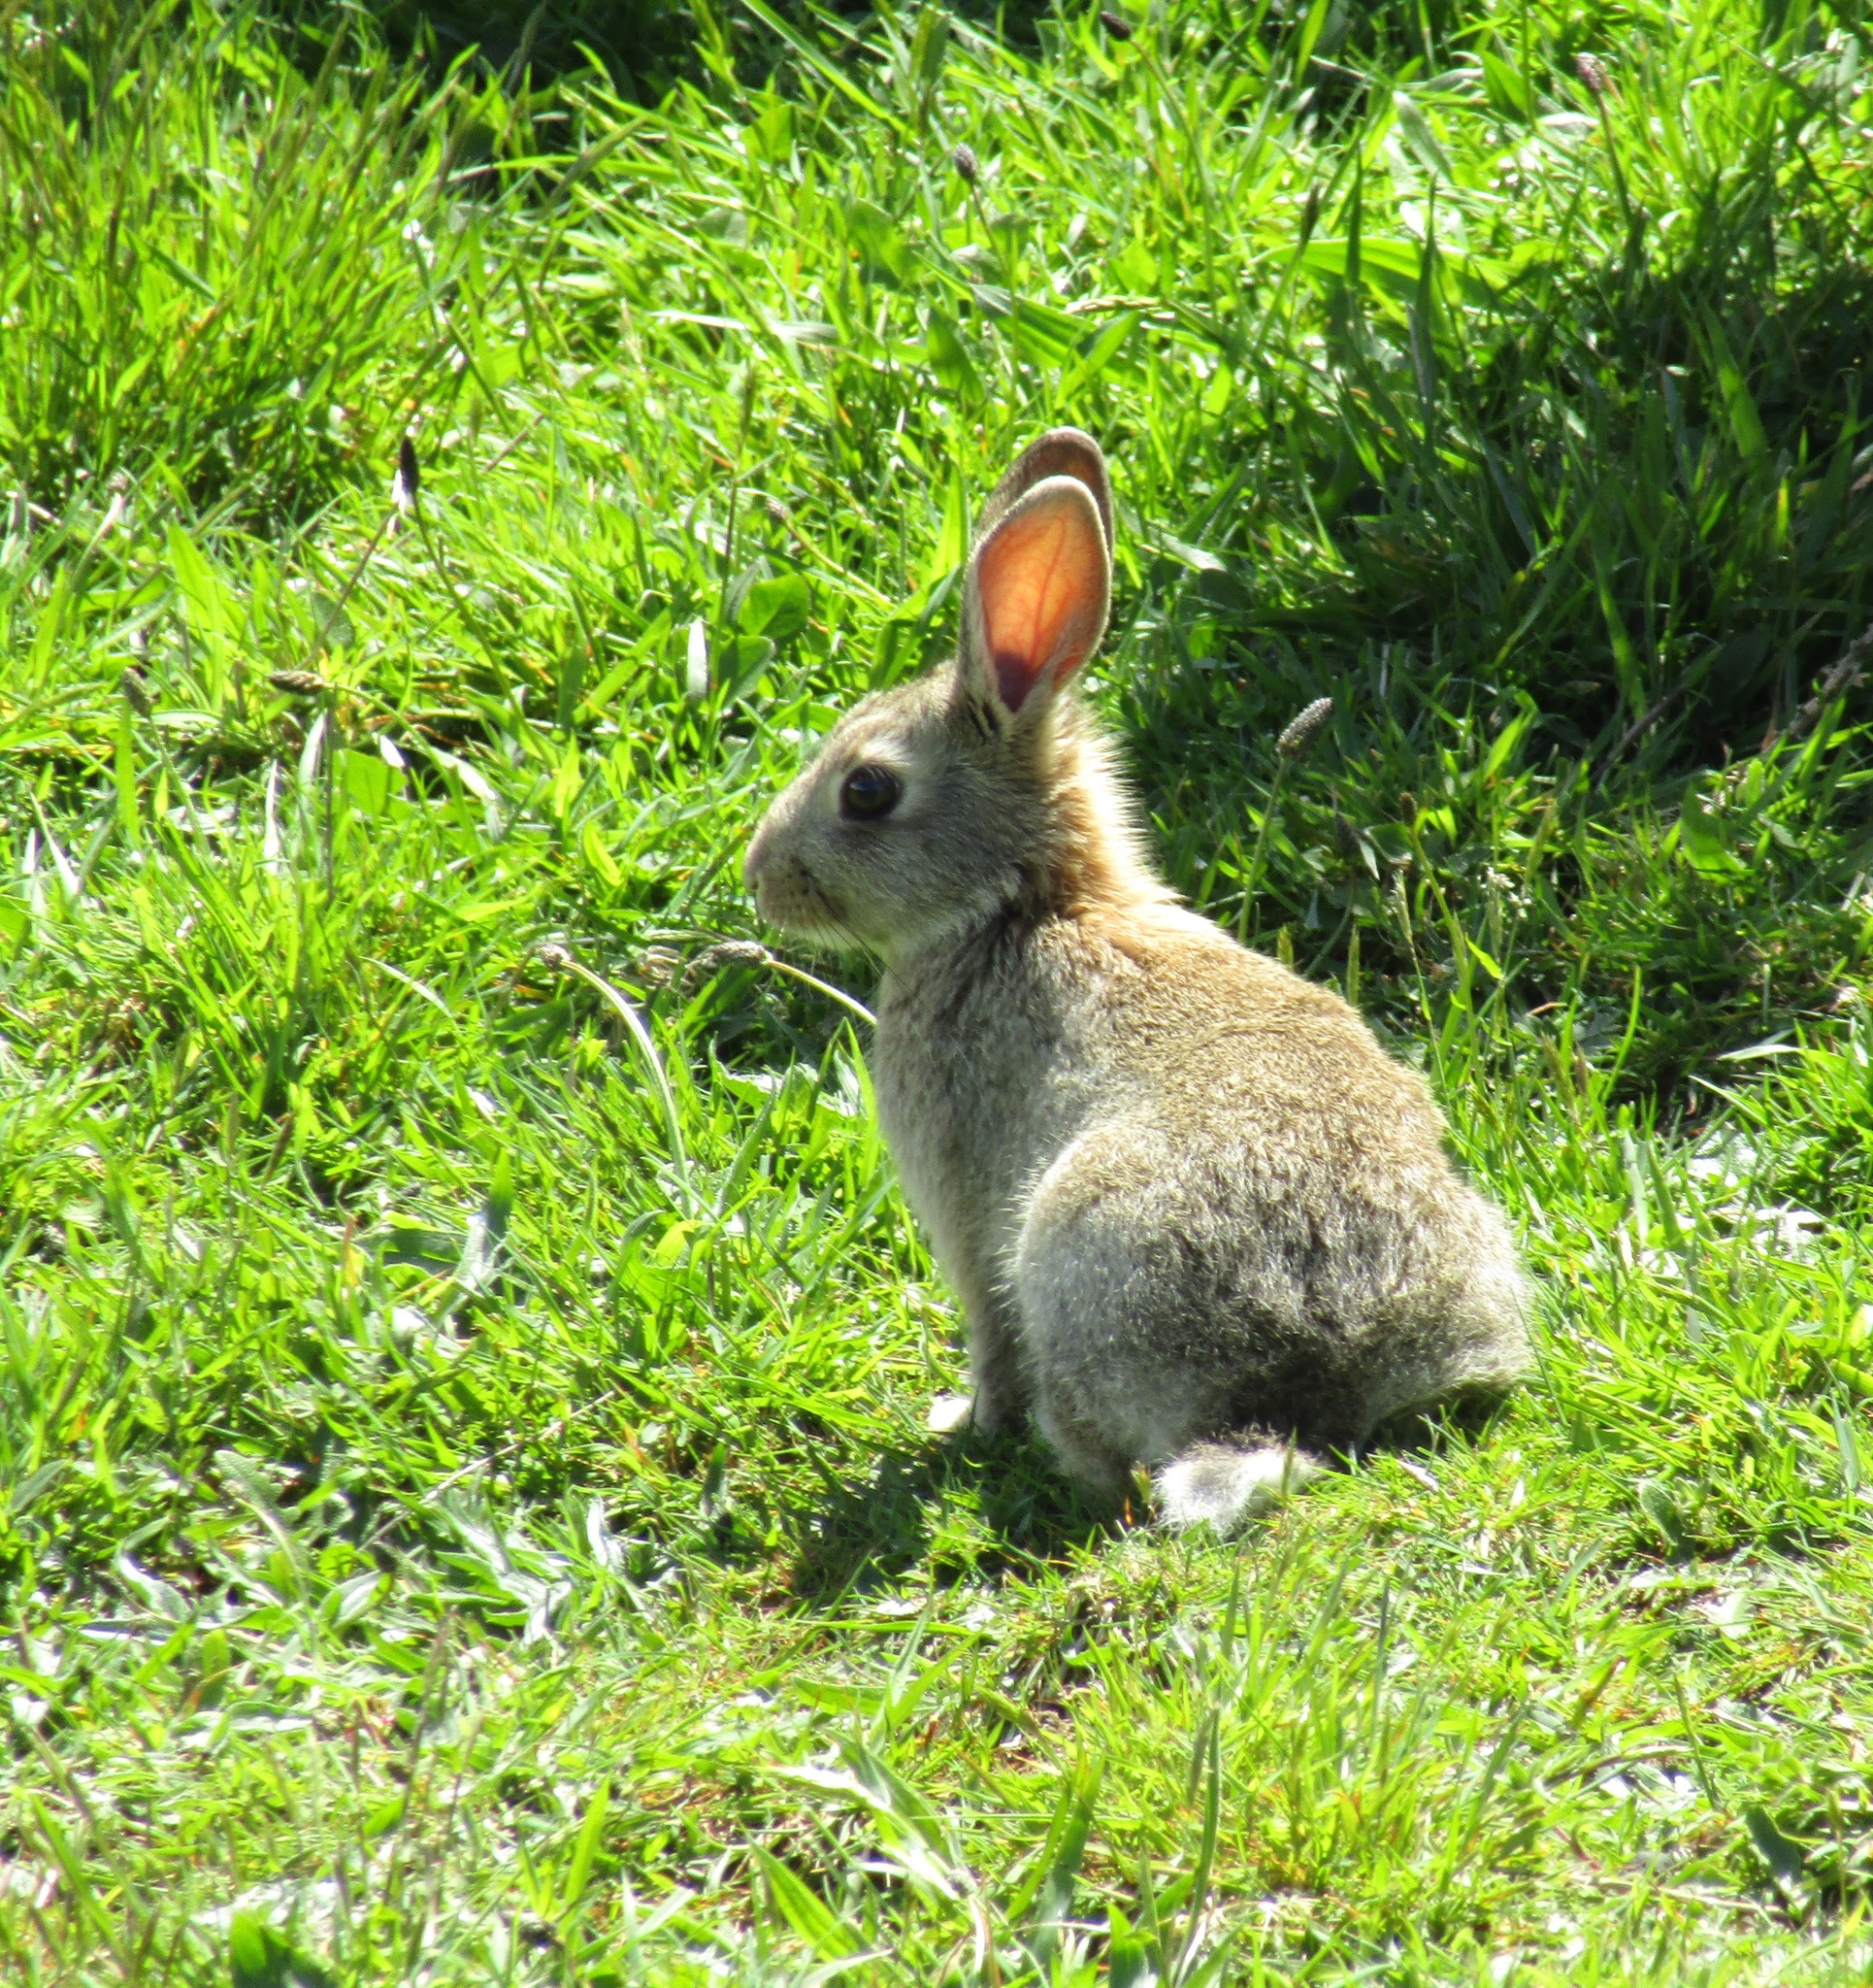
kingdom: Animalia
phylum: Chordata
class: Mammalia
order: Lagomorpha
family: Leporidae
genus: Oryctolagus
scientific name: Oryctolagus cuniculus
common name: European rabbit
